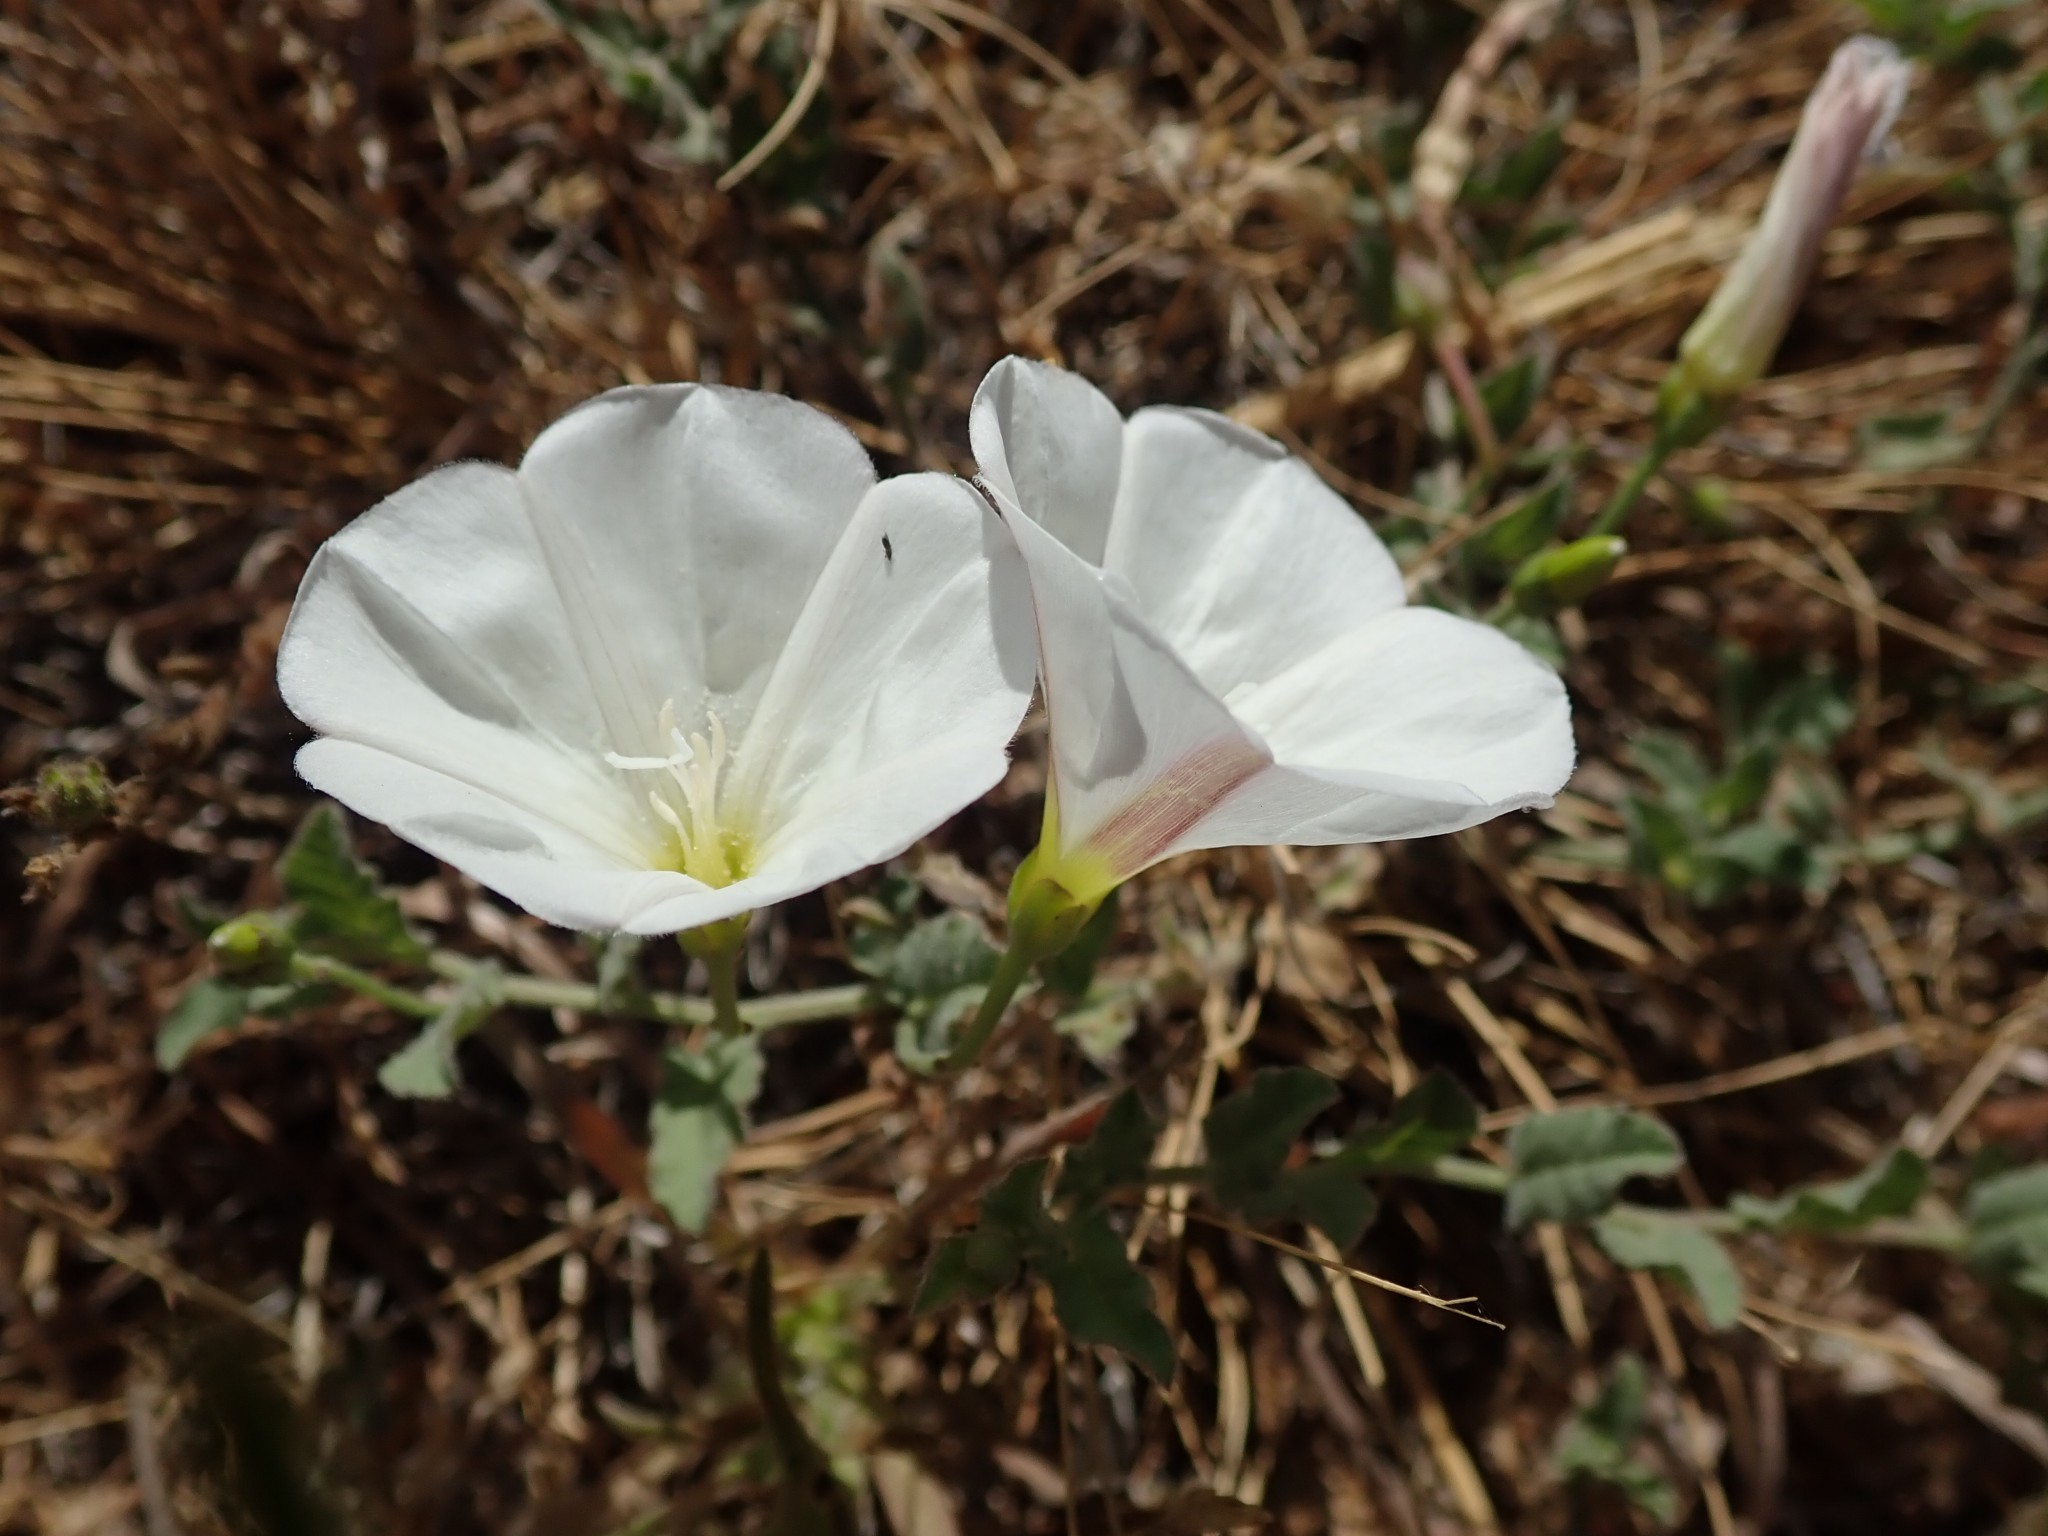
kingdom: Plantae
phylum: Tracheophyta
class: Magnoliopsida
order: Solanales
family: Convolvulaceae
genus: Convolvulus
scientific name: Convolvulus arvensis
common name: Field bindweed
